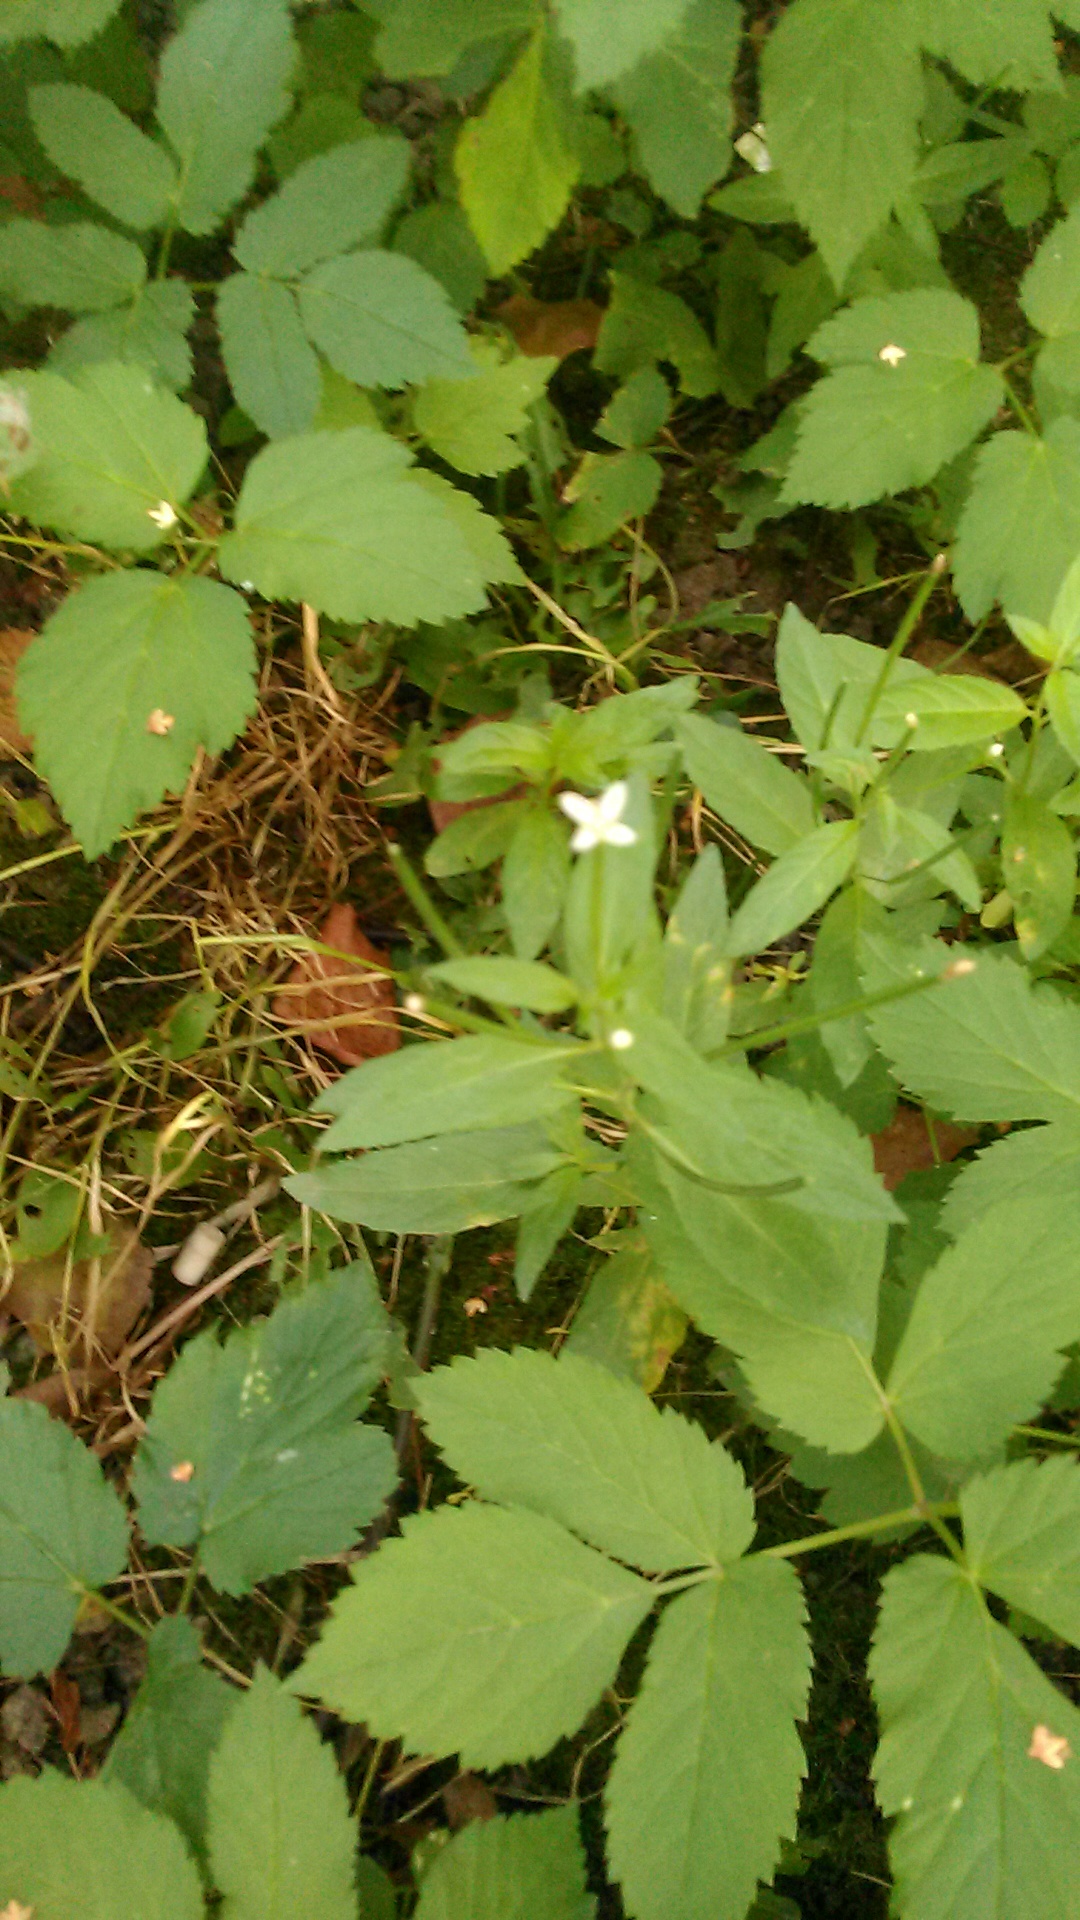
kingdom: Plantae
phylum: Tracheophyta
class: Magnoliopsida
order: Myrtales
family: Onagraceae
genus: Epilobium
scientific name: Epilobium pseudorubescens
